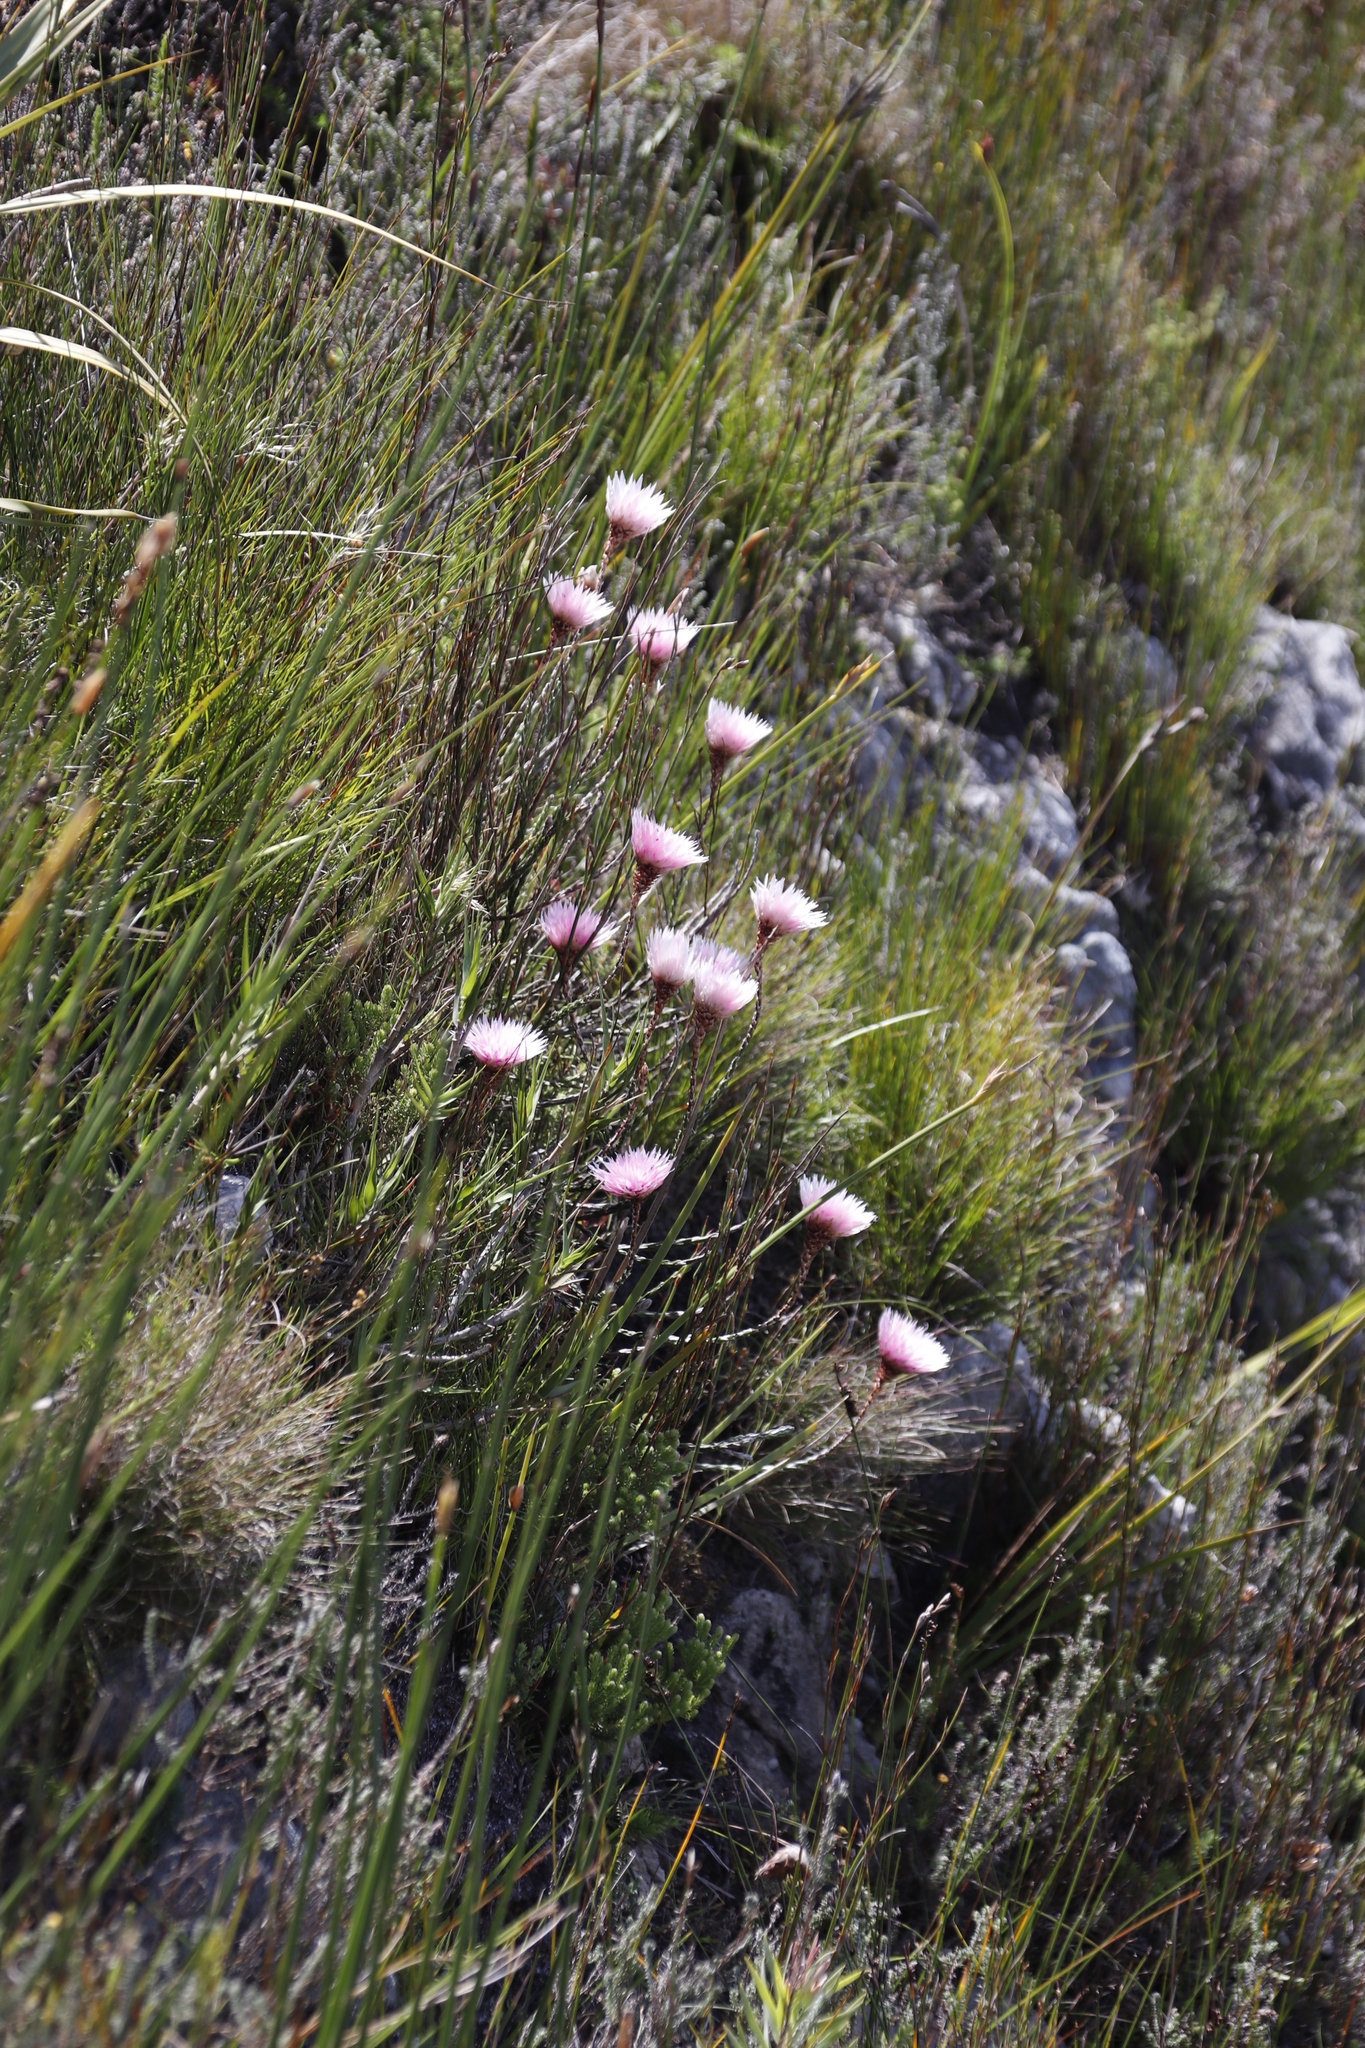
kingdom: Plantae
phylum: Tracheophyta
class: Magnoliopsida
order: Asterales
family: Asteraceae
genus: Edmondia
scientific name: Edmondia pinifolia
